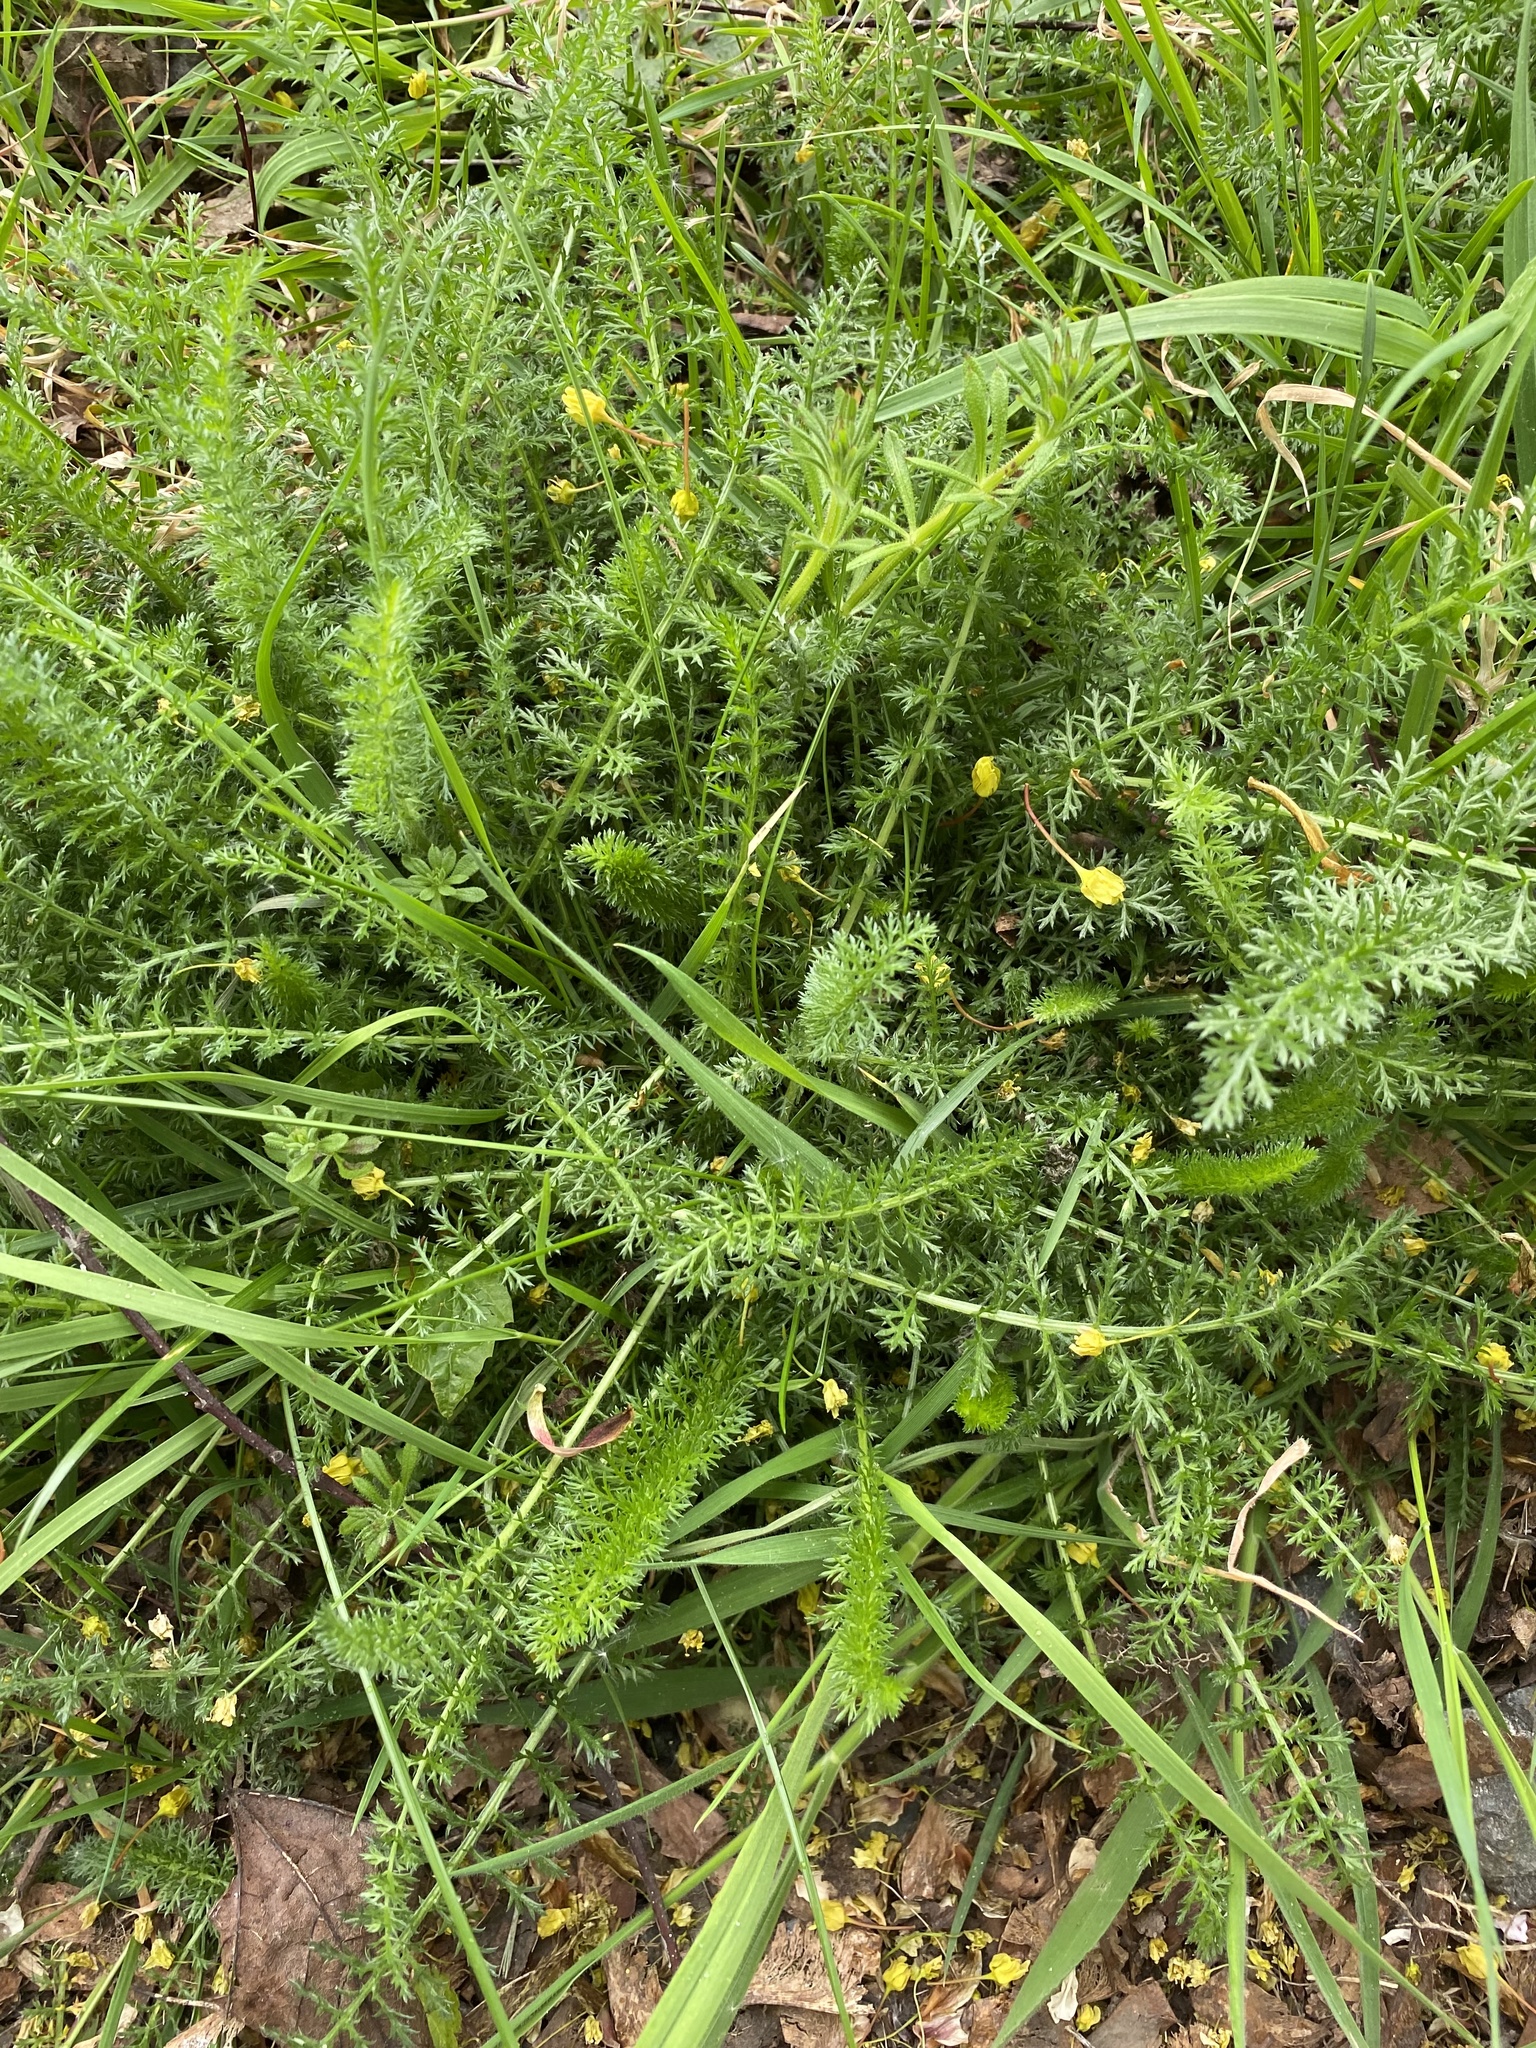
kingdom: Plantae
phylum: Tracheophyta
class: Magnoliopsida
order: Asterales
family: Asteraceae
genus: Achillea
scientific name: Achillea millefolium
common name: Yarrow
